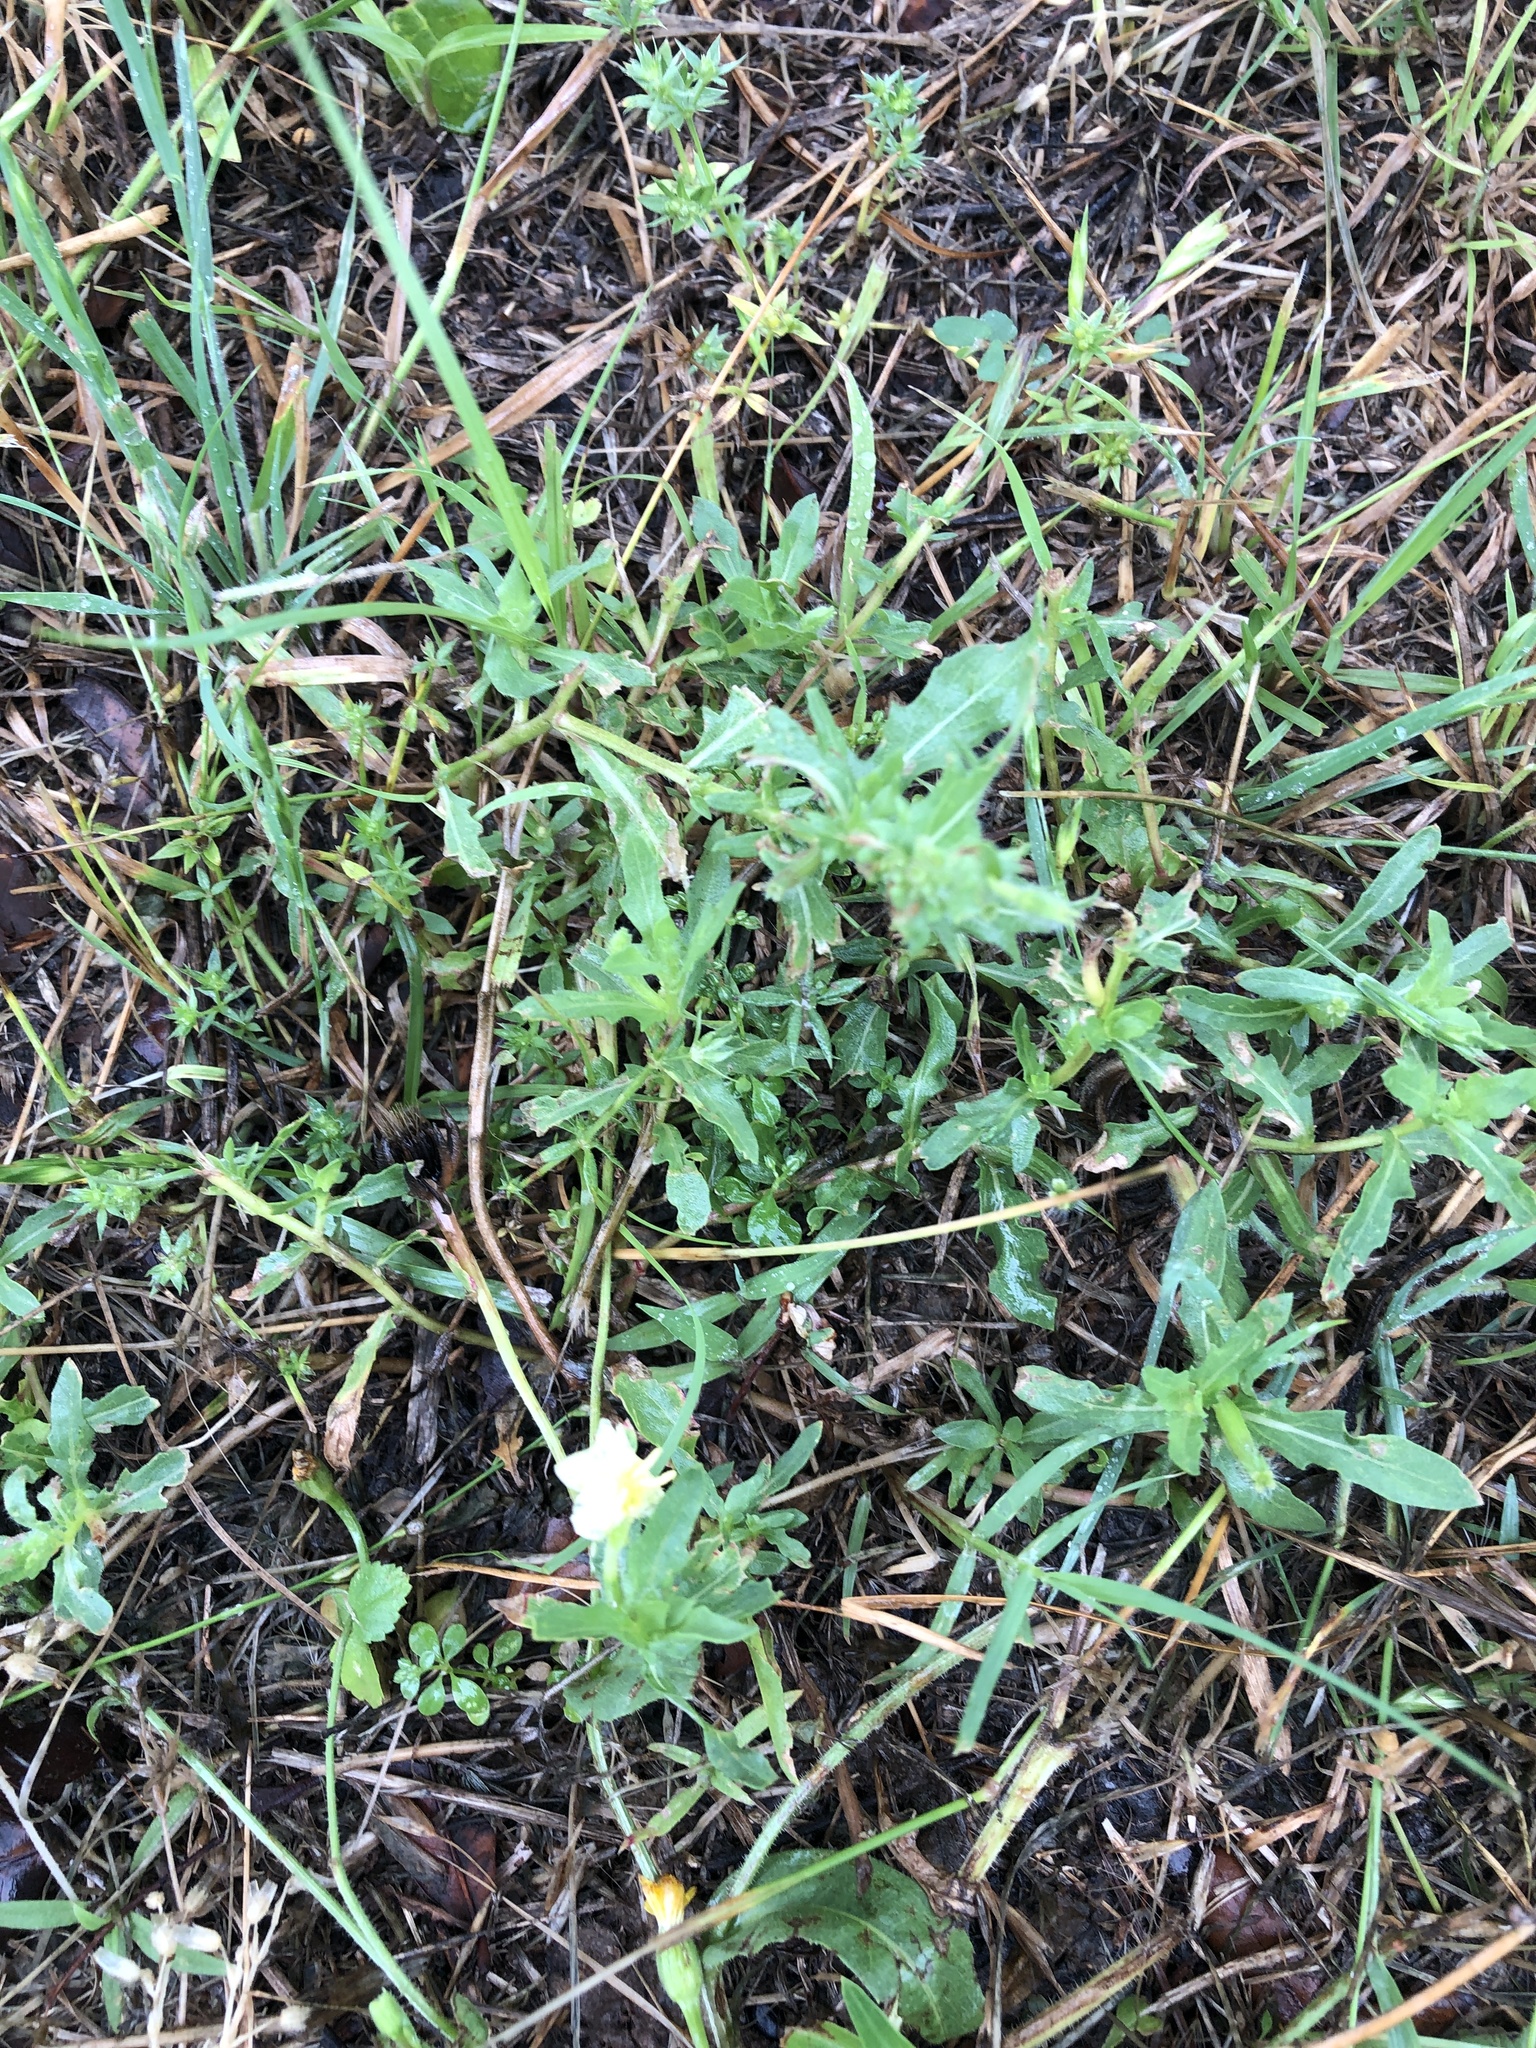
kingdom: Plantae
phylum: Tracheophyta
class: Magnoliopsida
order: Myrtales
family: Onagraceae
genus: Oenothera
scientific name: Oenothera laciniata
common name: Cut-leaved evening-primrose
